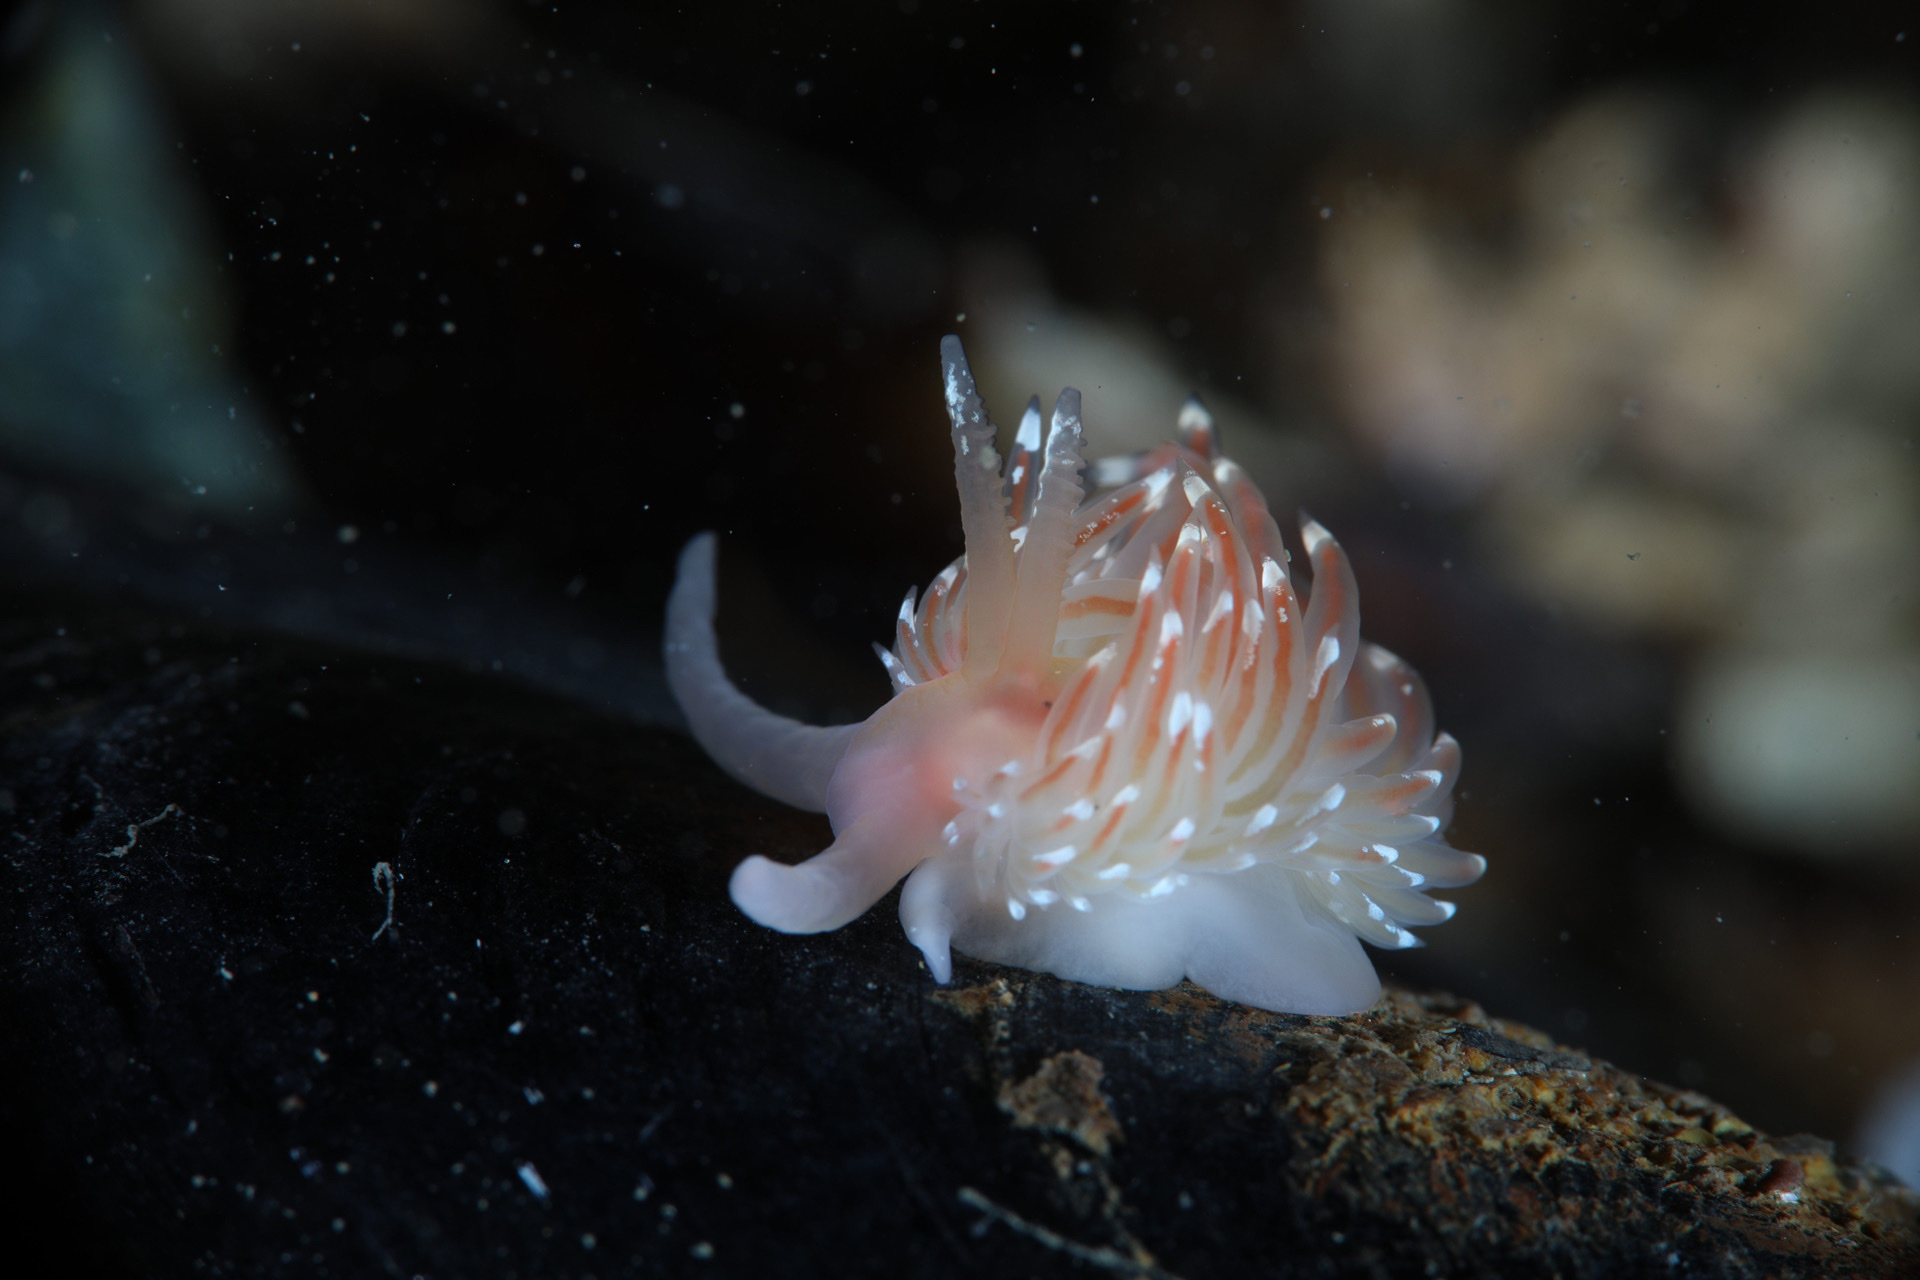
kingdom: Animalia
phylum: Mollusca
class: Gastropoda
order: Nudibranchia
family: Facelinidae
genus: Facelina
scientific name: Facelina bostoniensis
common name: Boston facelina
